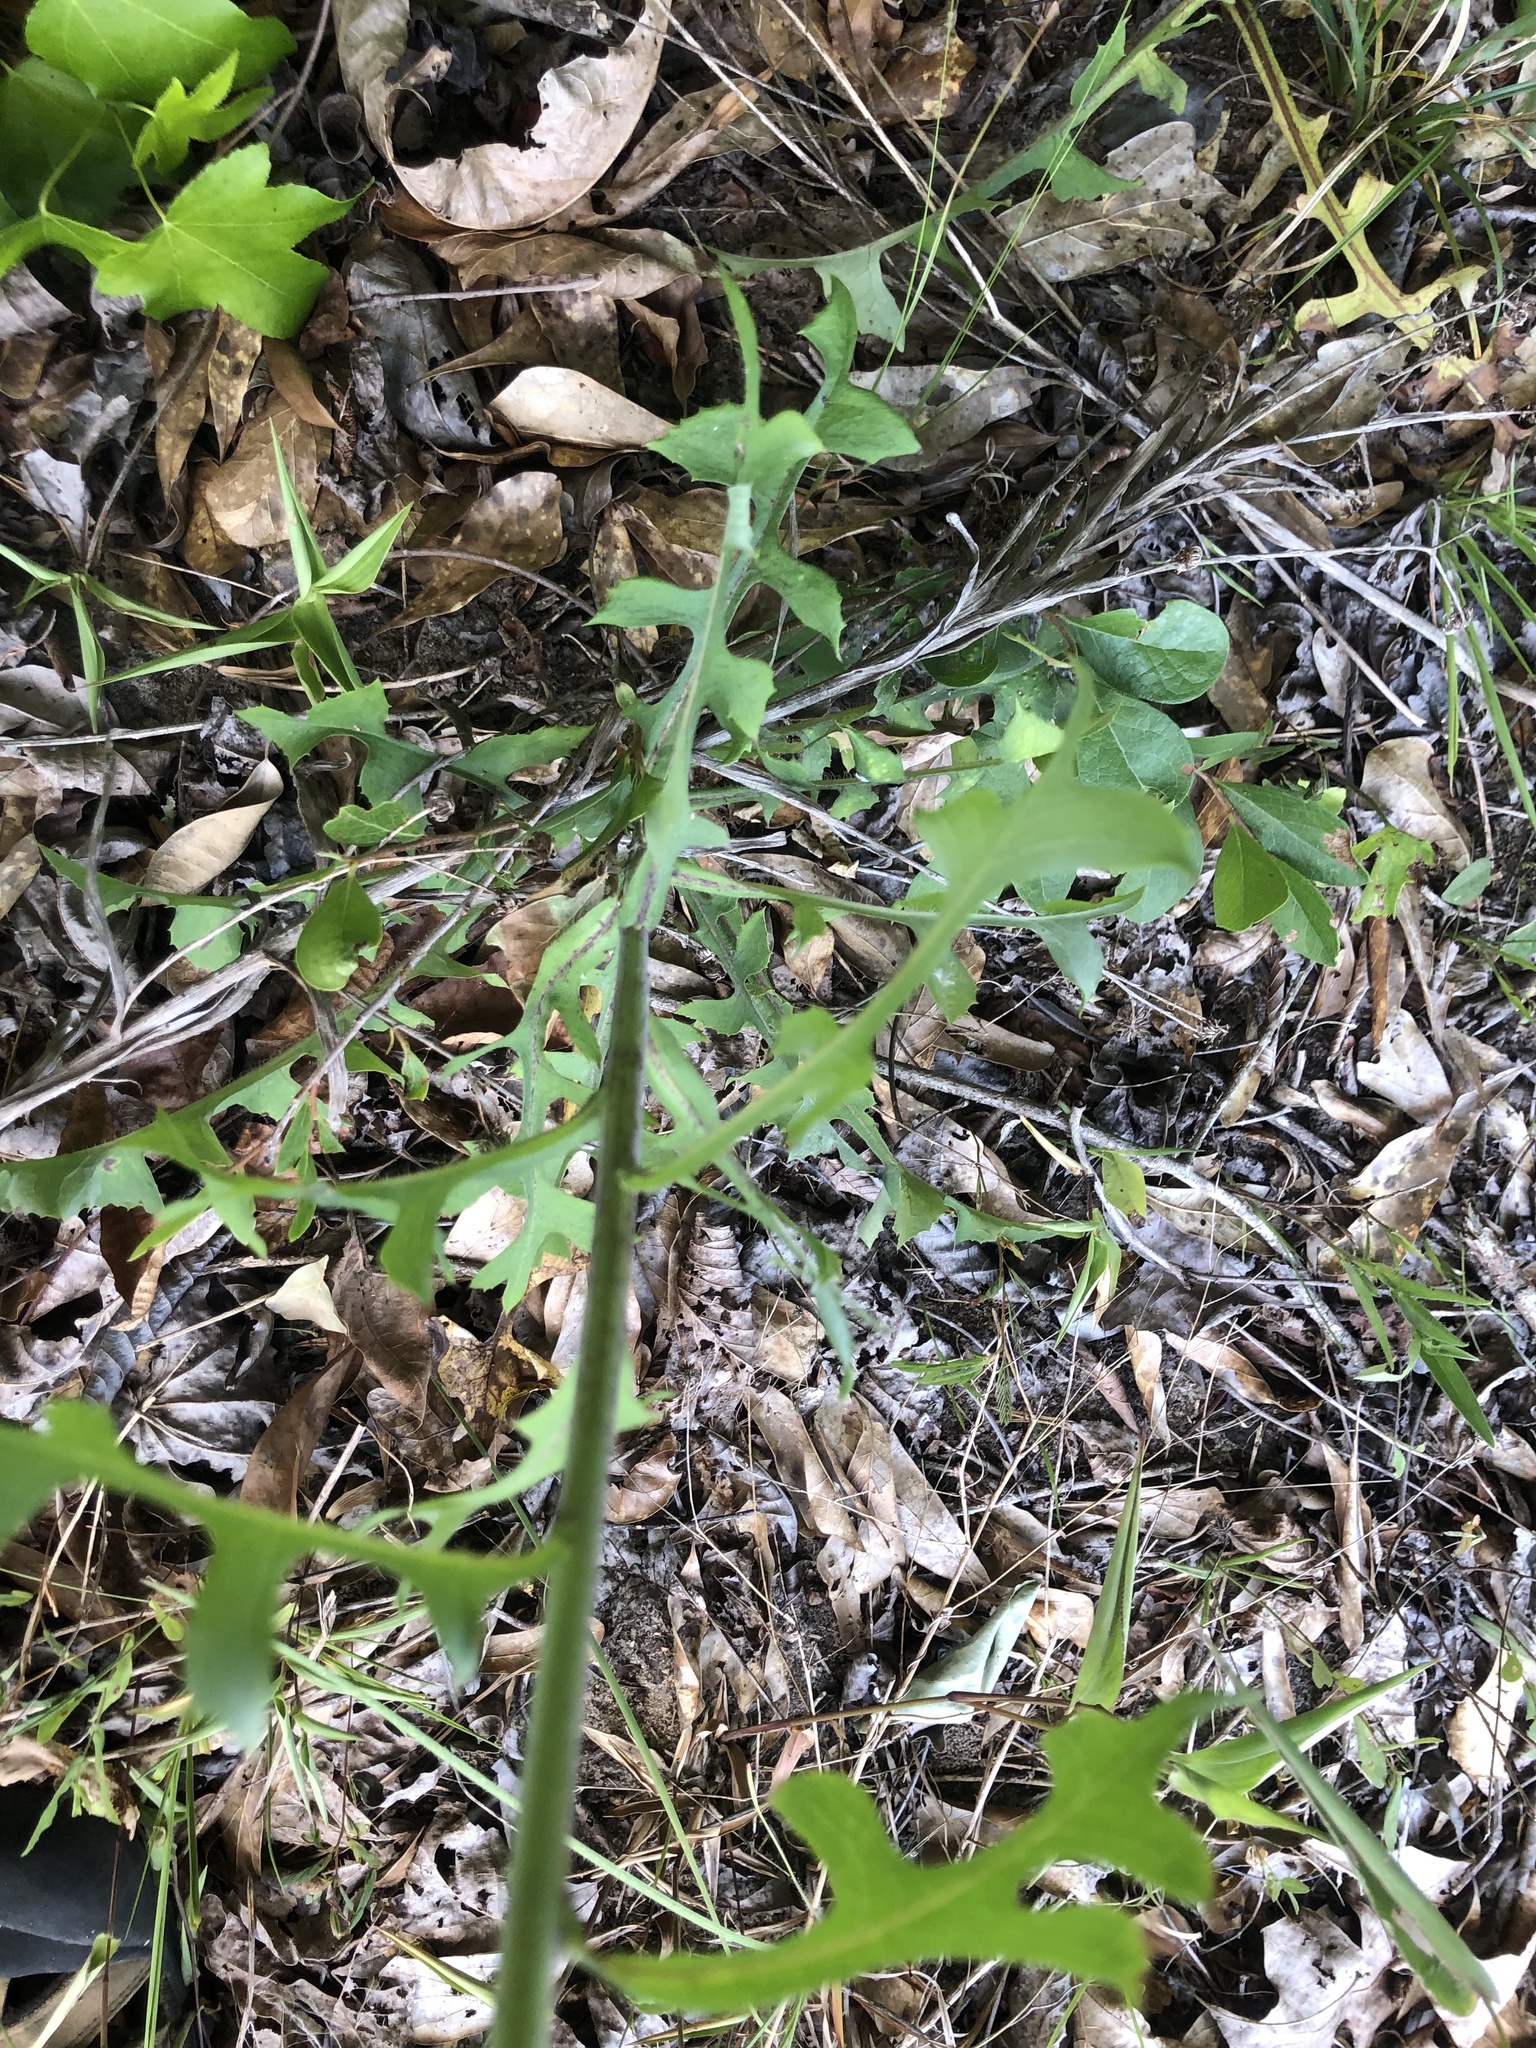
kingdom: Plantae
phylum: Tracheophyta
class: Magnoliopsida
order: Asterales
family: Asteraceae
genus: Lactuca
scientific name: Lactuca hirsuta
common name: Hairy lettuce
